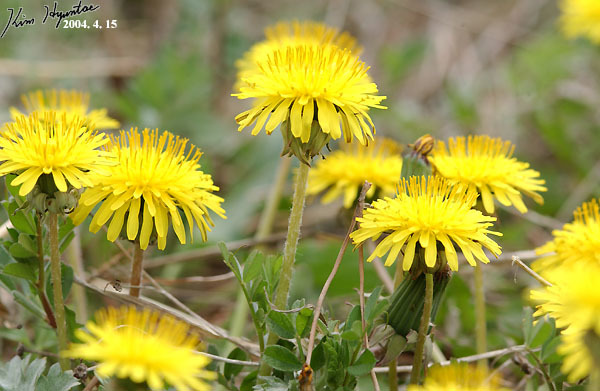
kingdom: Plantae
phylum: Tracheophyta
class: Magnoliopsida
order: Asterales
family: Asteraceae
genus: Taraxacum
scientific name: Taraxacum officinale
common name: Common dandelion
